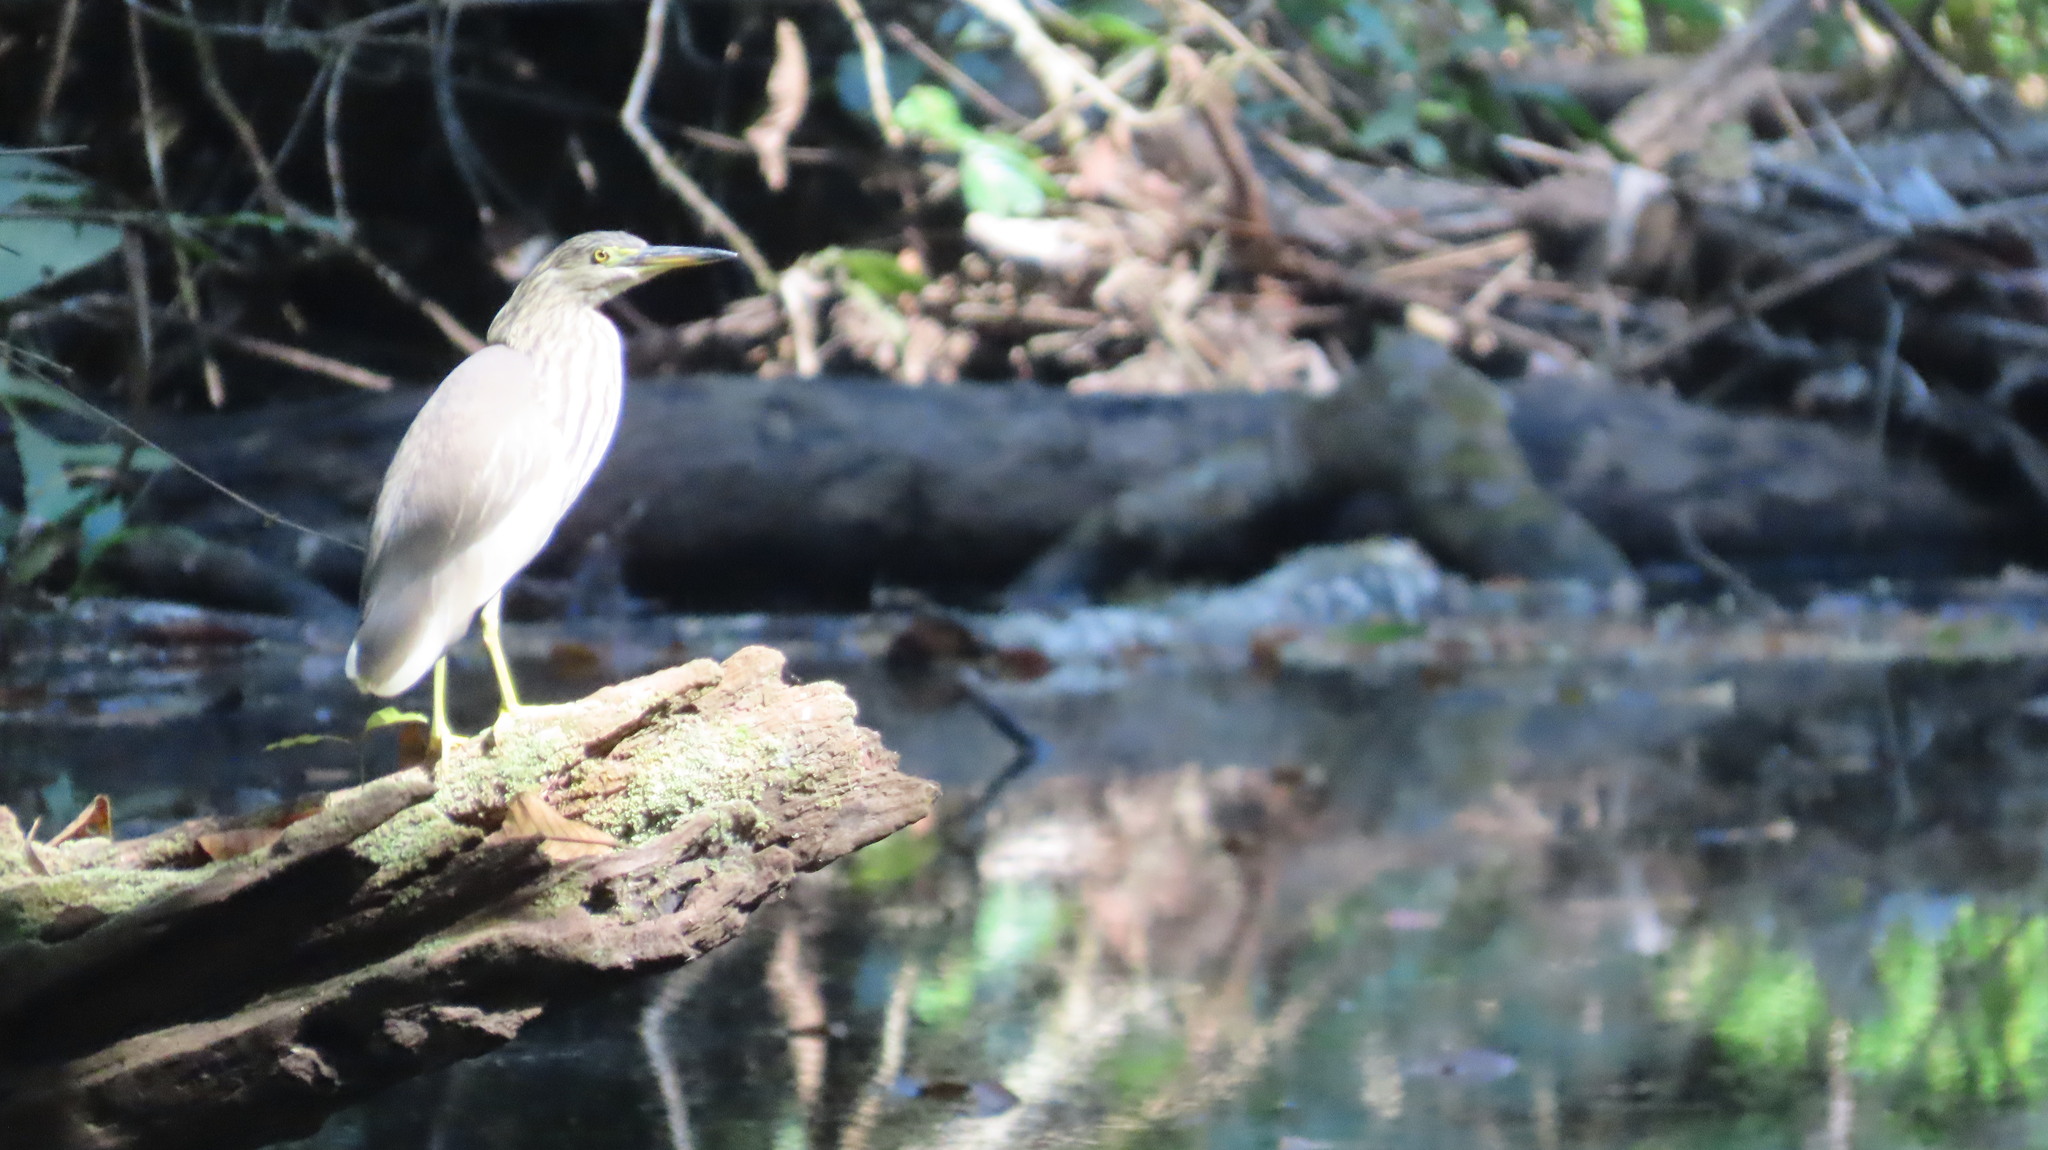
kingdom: Animalia
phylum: Chordata
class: Aves
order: Pelecaniformes
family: Ardeidae
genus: Ardeola
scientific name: Ardeola grayii
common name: Indian pond heron
